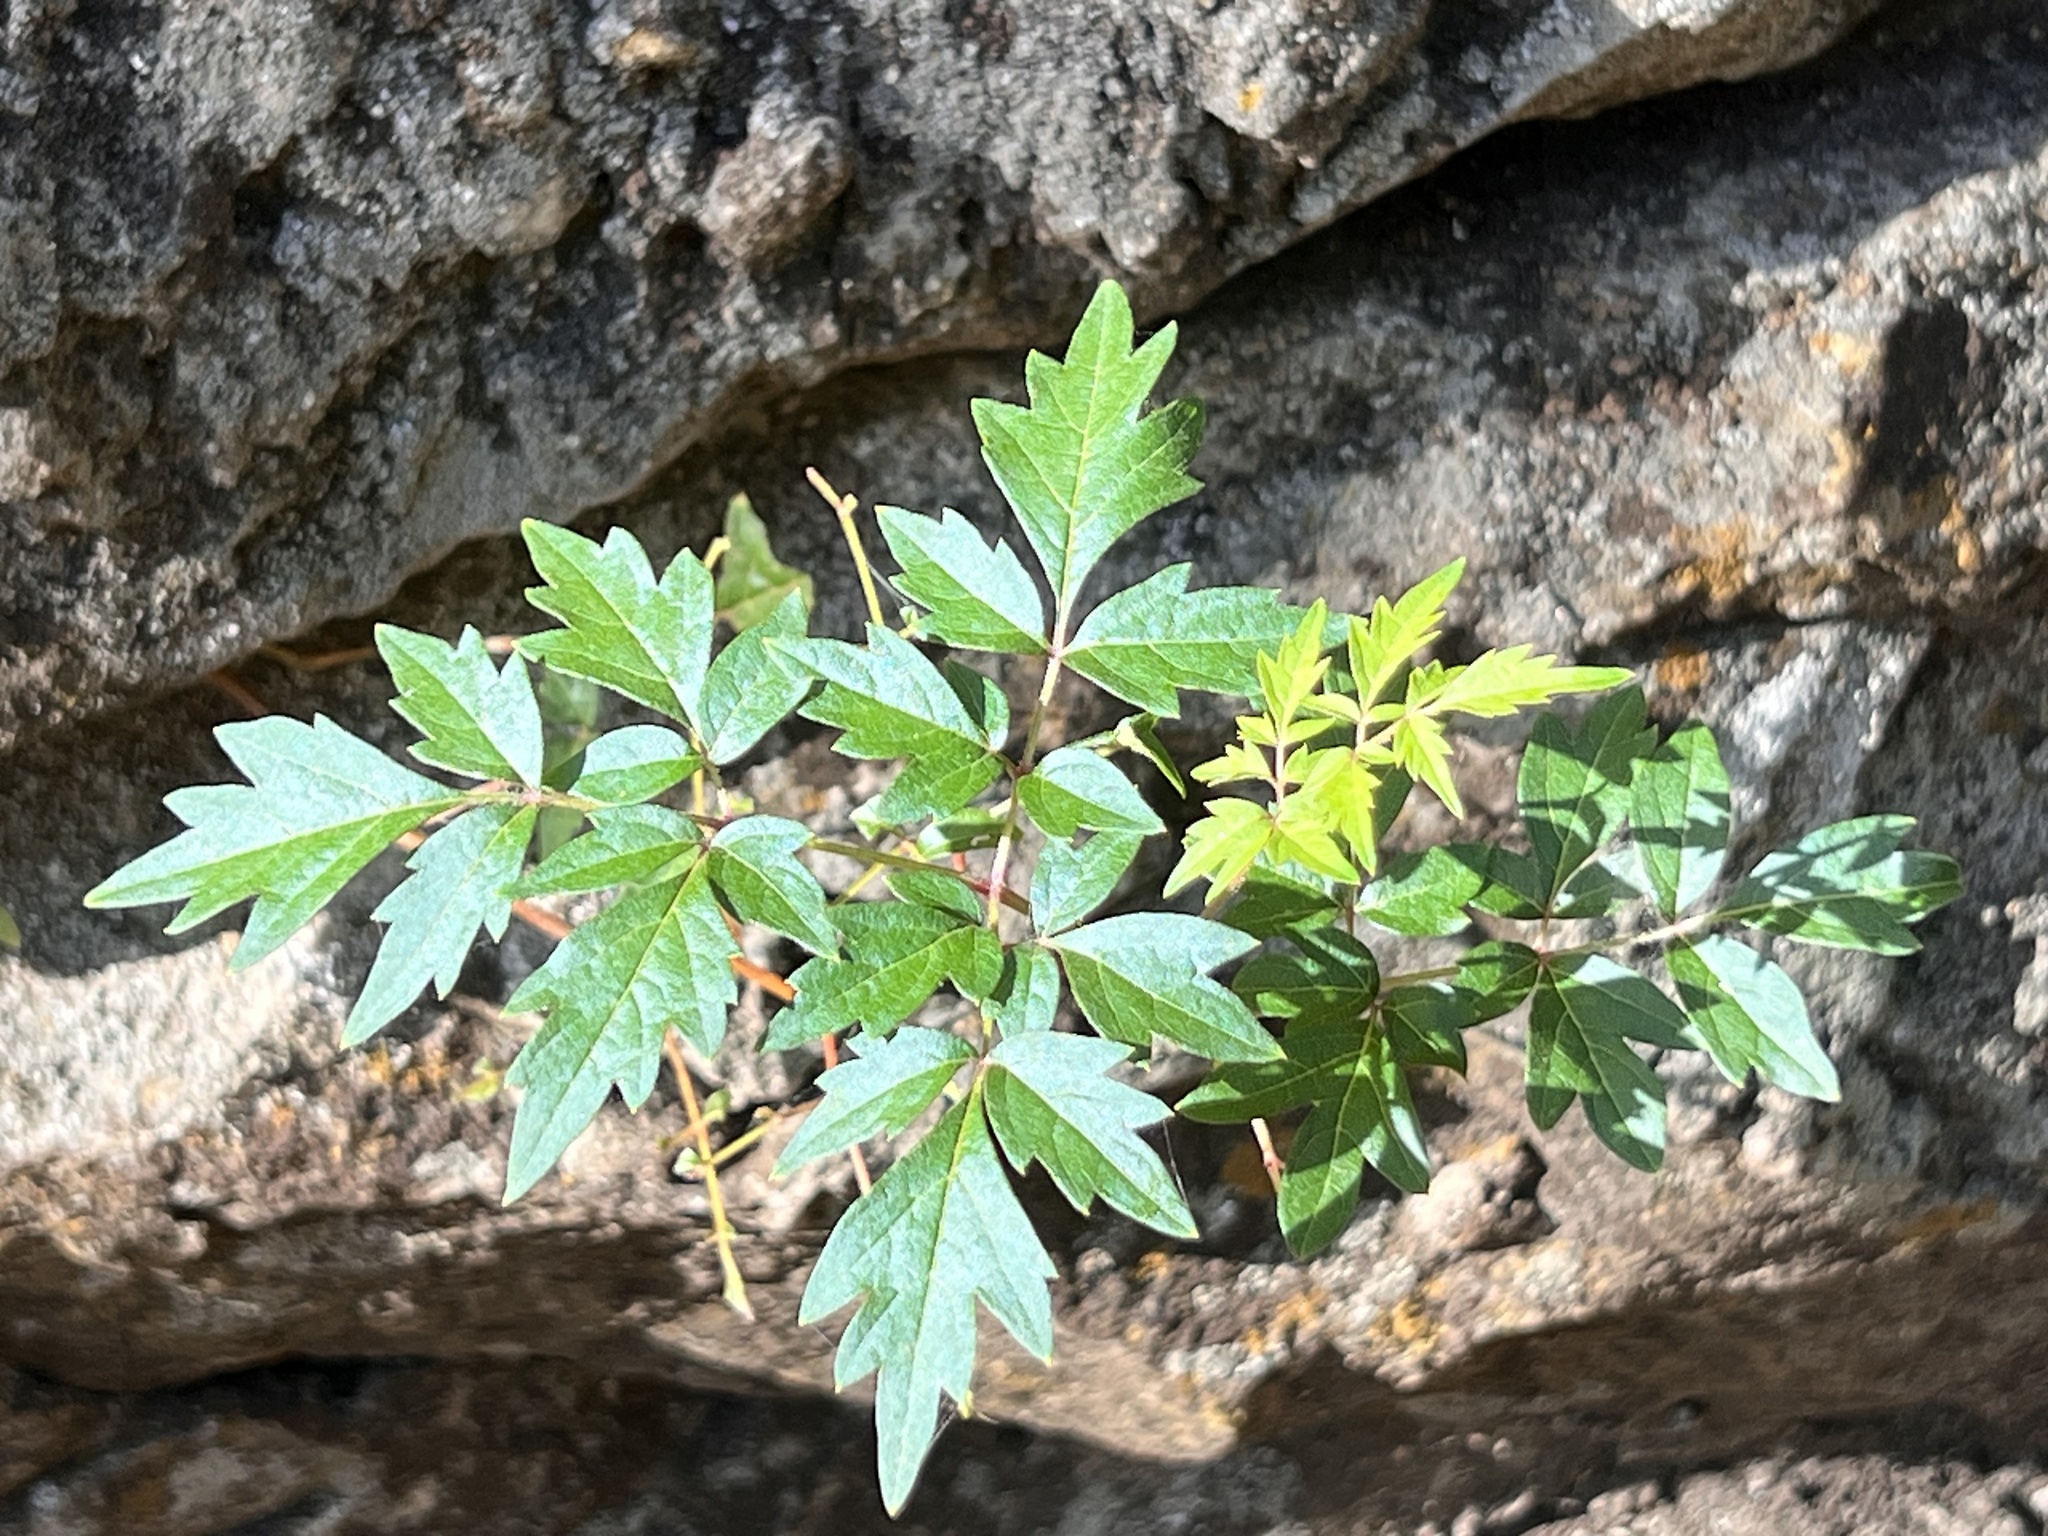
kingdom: Plantae
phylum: Tracheophyta
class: Magnoliopsida
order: Vitales
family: Vitaceae
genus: Nekemias
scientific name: Nekemias arborea
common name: Peppervine
